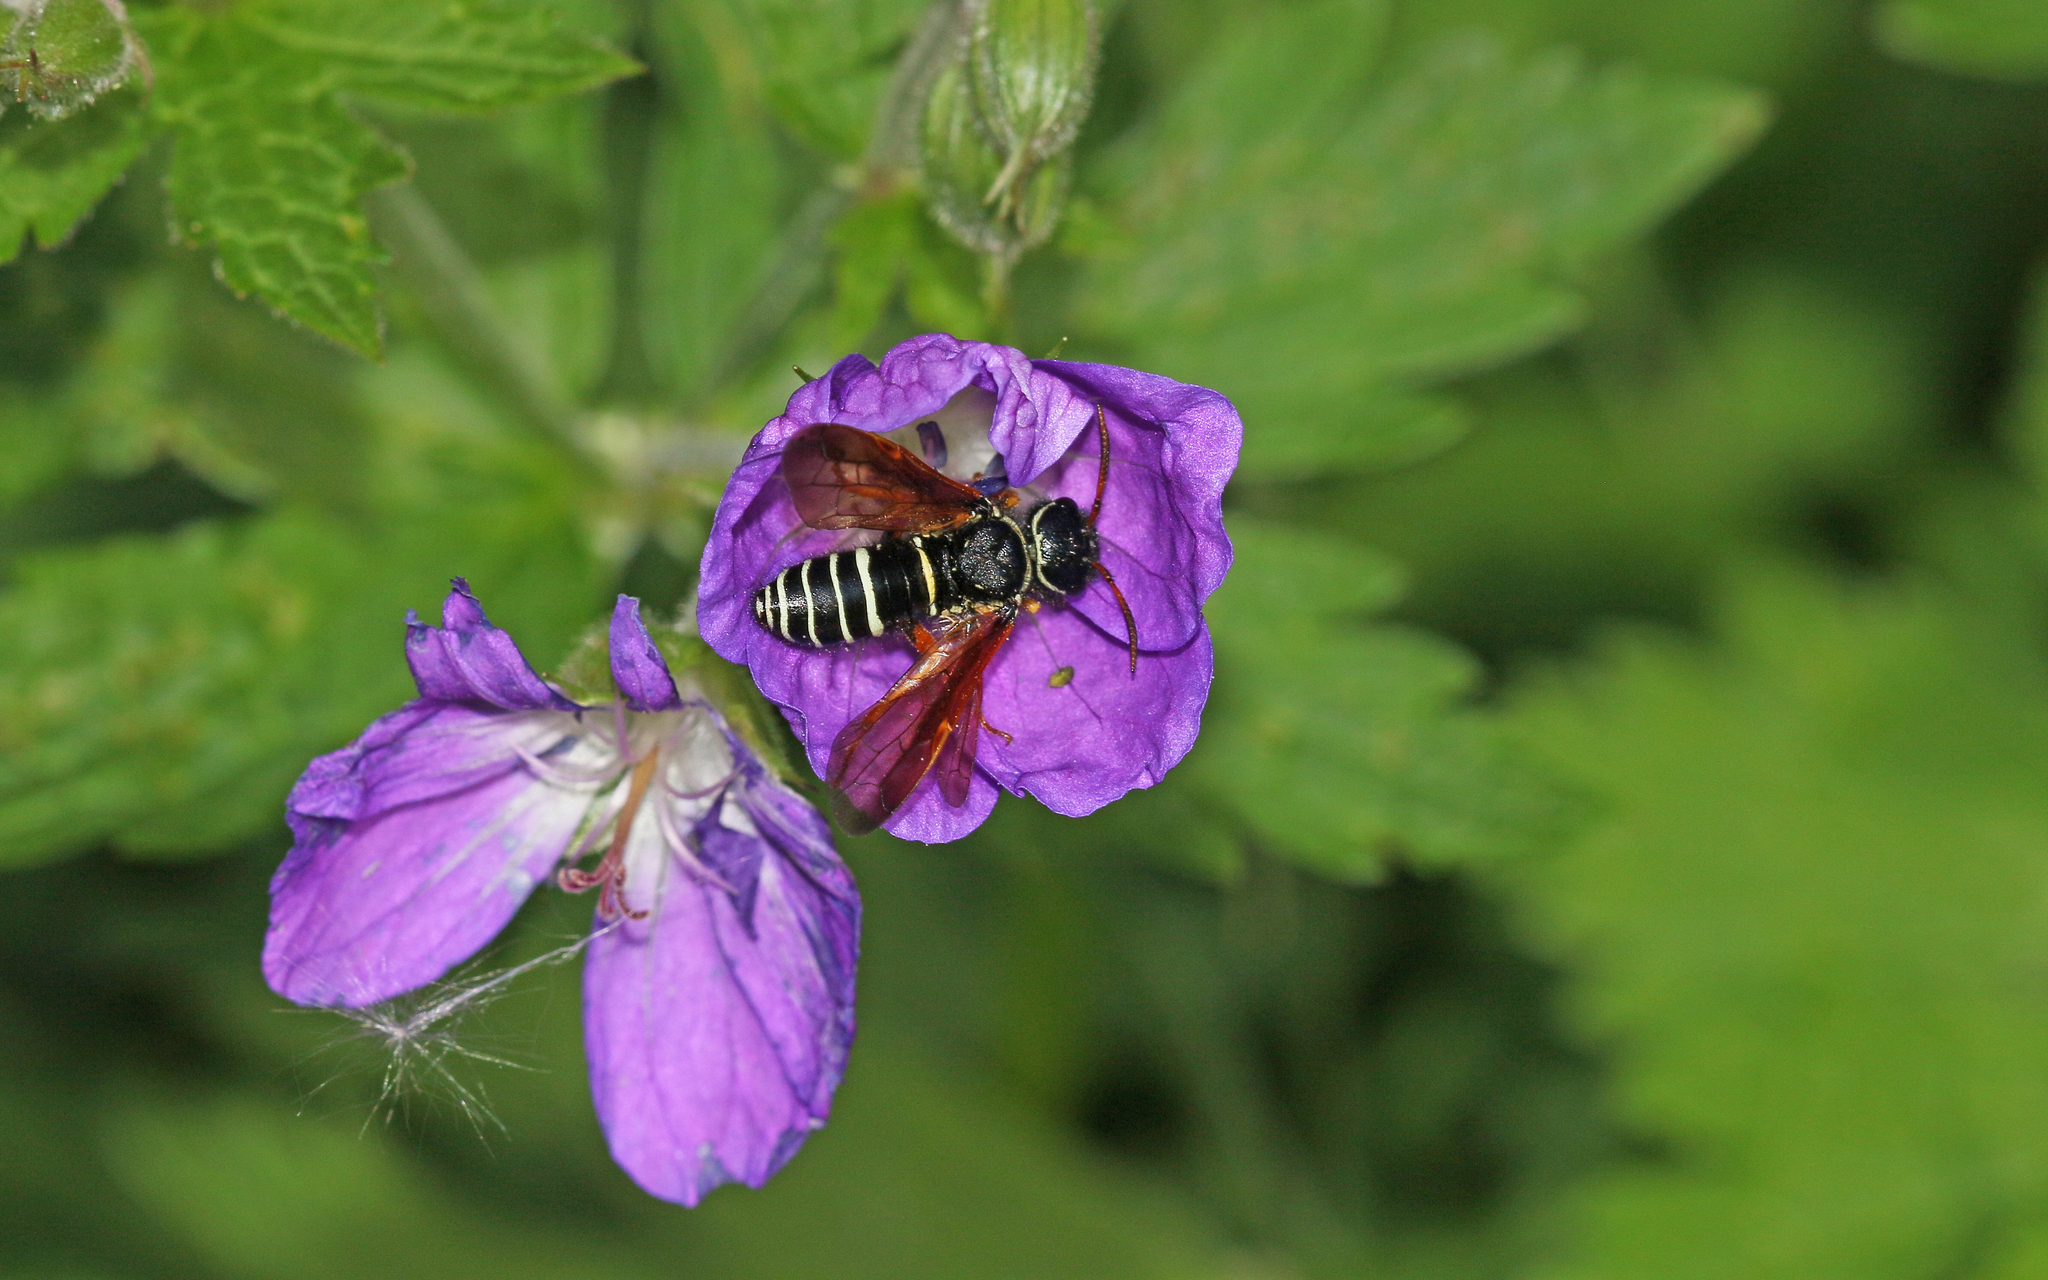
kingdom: Animalia
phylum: Arthropoda
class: Insecta
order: Hymenoptera
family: Megalodontesidae
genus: Megalodontes
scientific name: Megalodontes cephalotes
